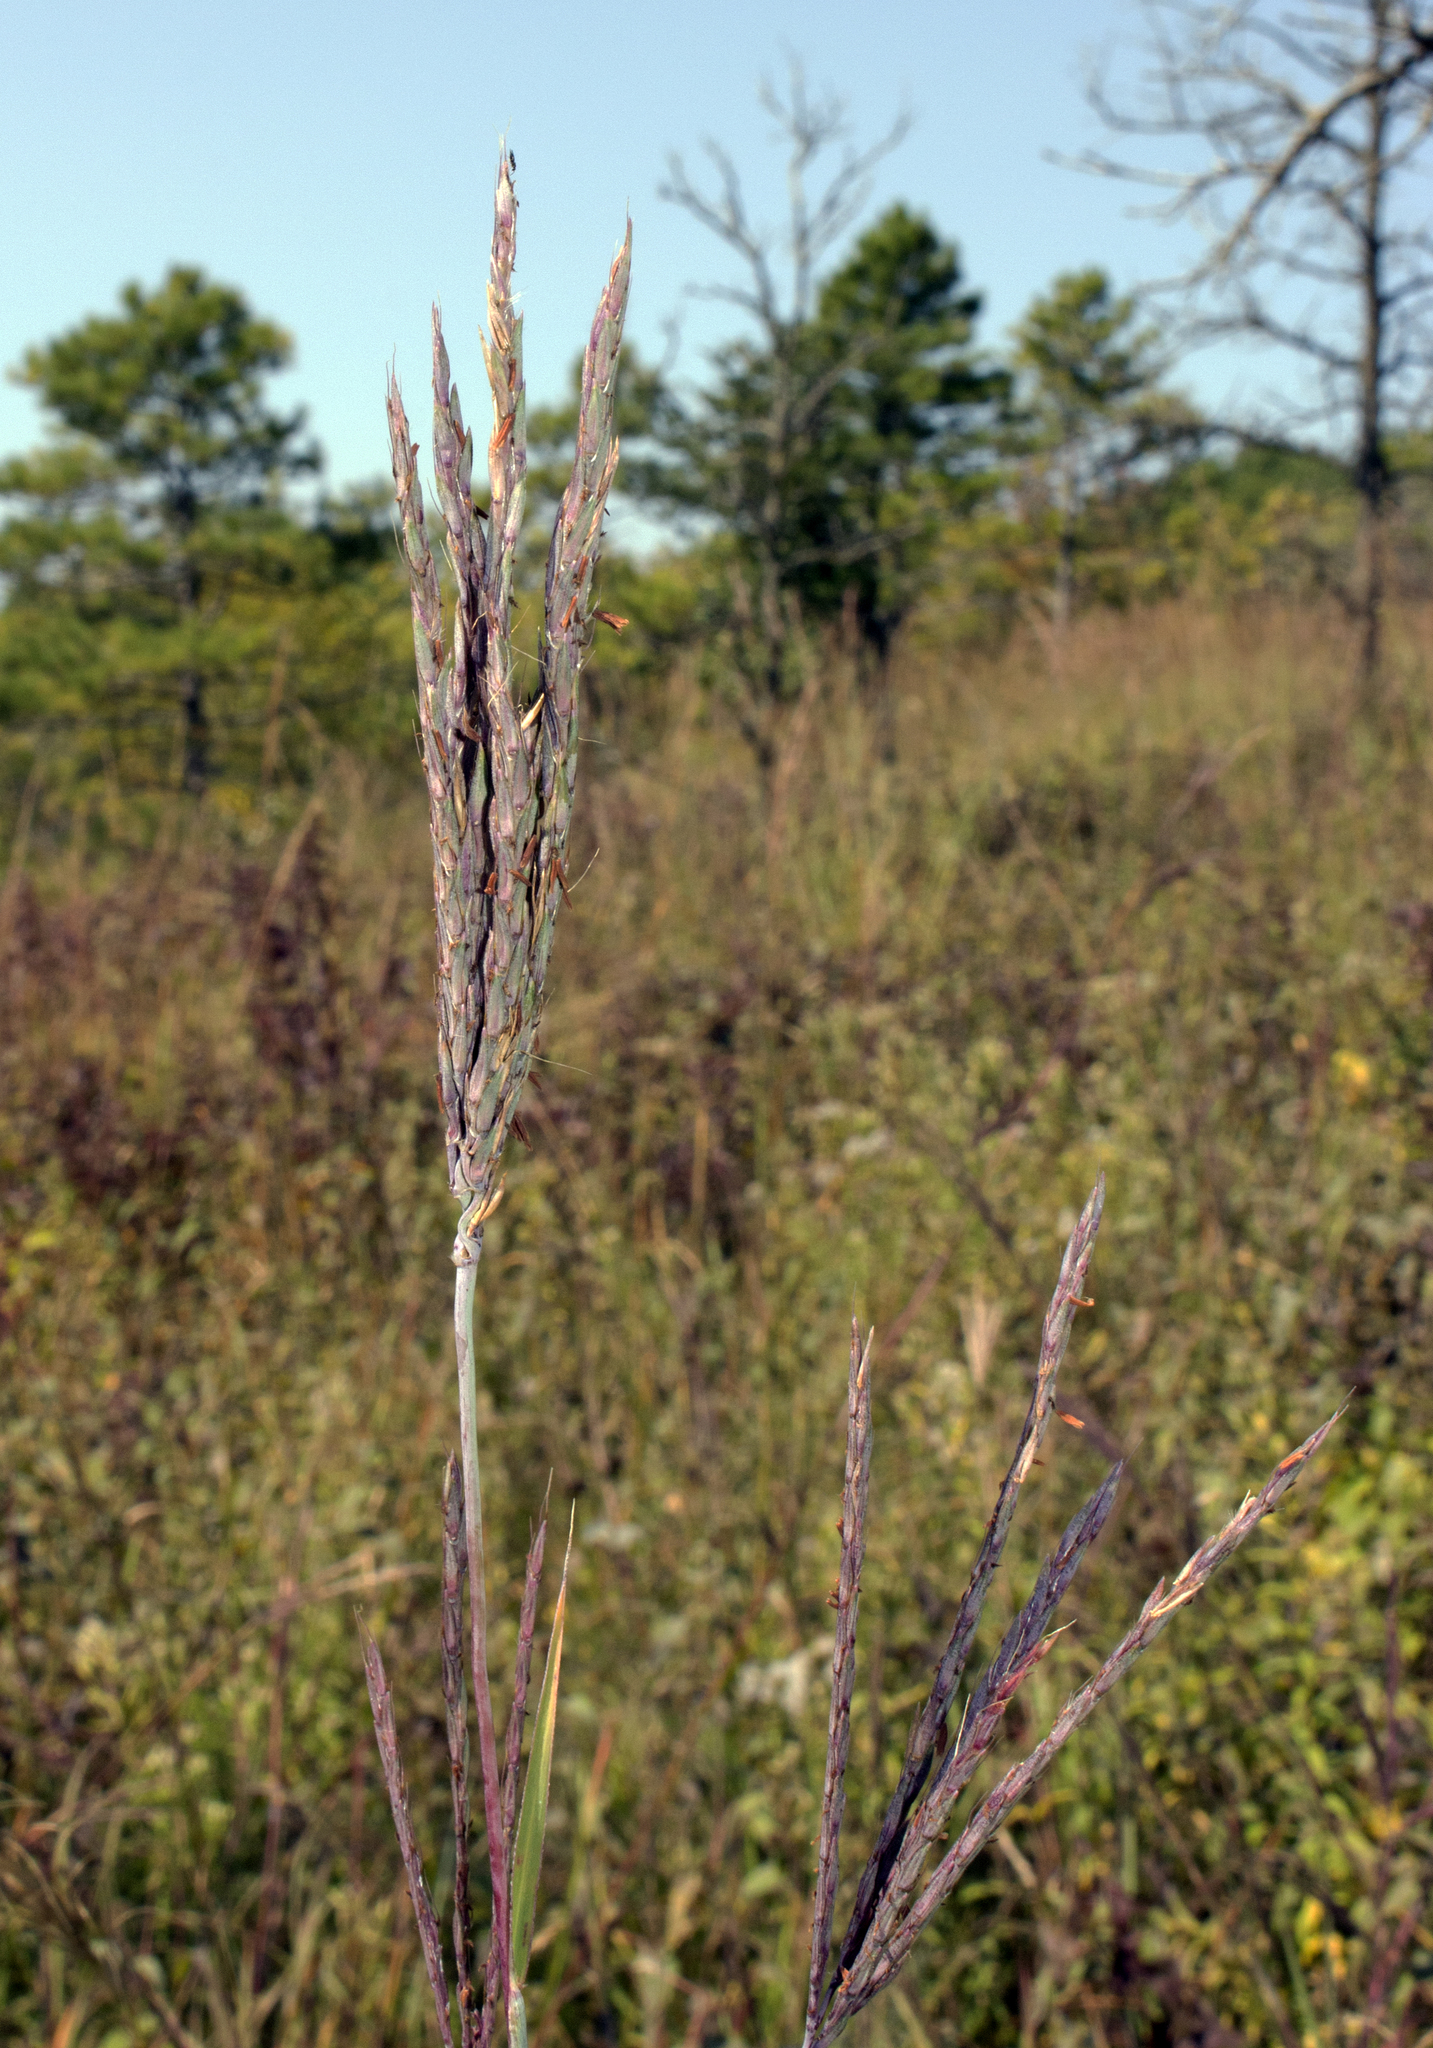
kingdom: Plantae
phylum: Tracheophyta
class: Liliopsida
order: Poales
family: Poaceae
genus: Andropogon
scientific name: Andropogon gerardi
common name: Big bluestem
